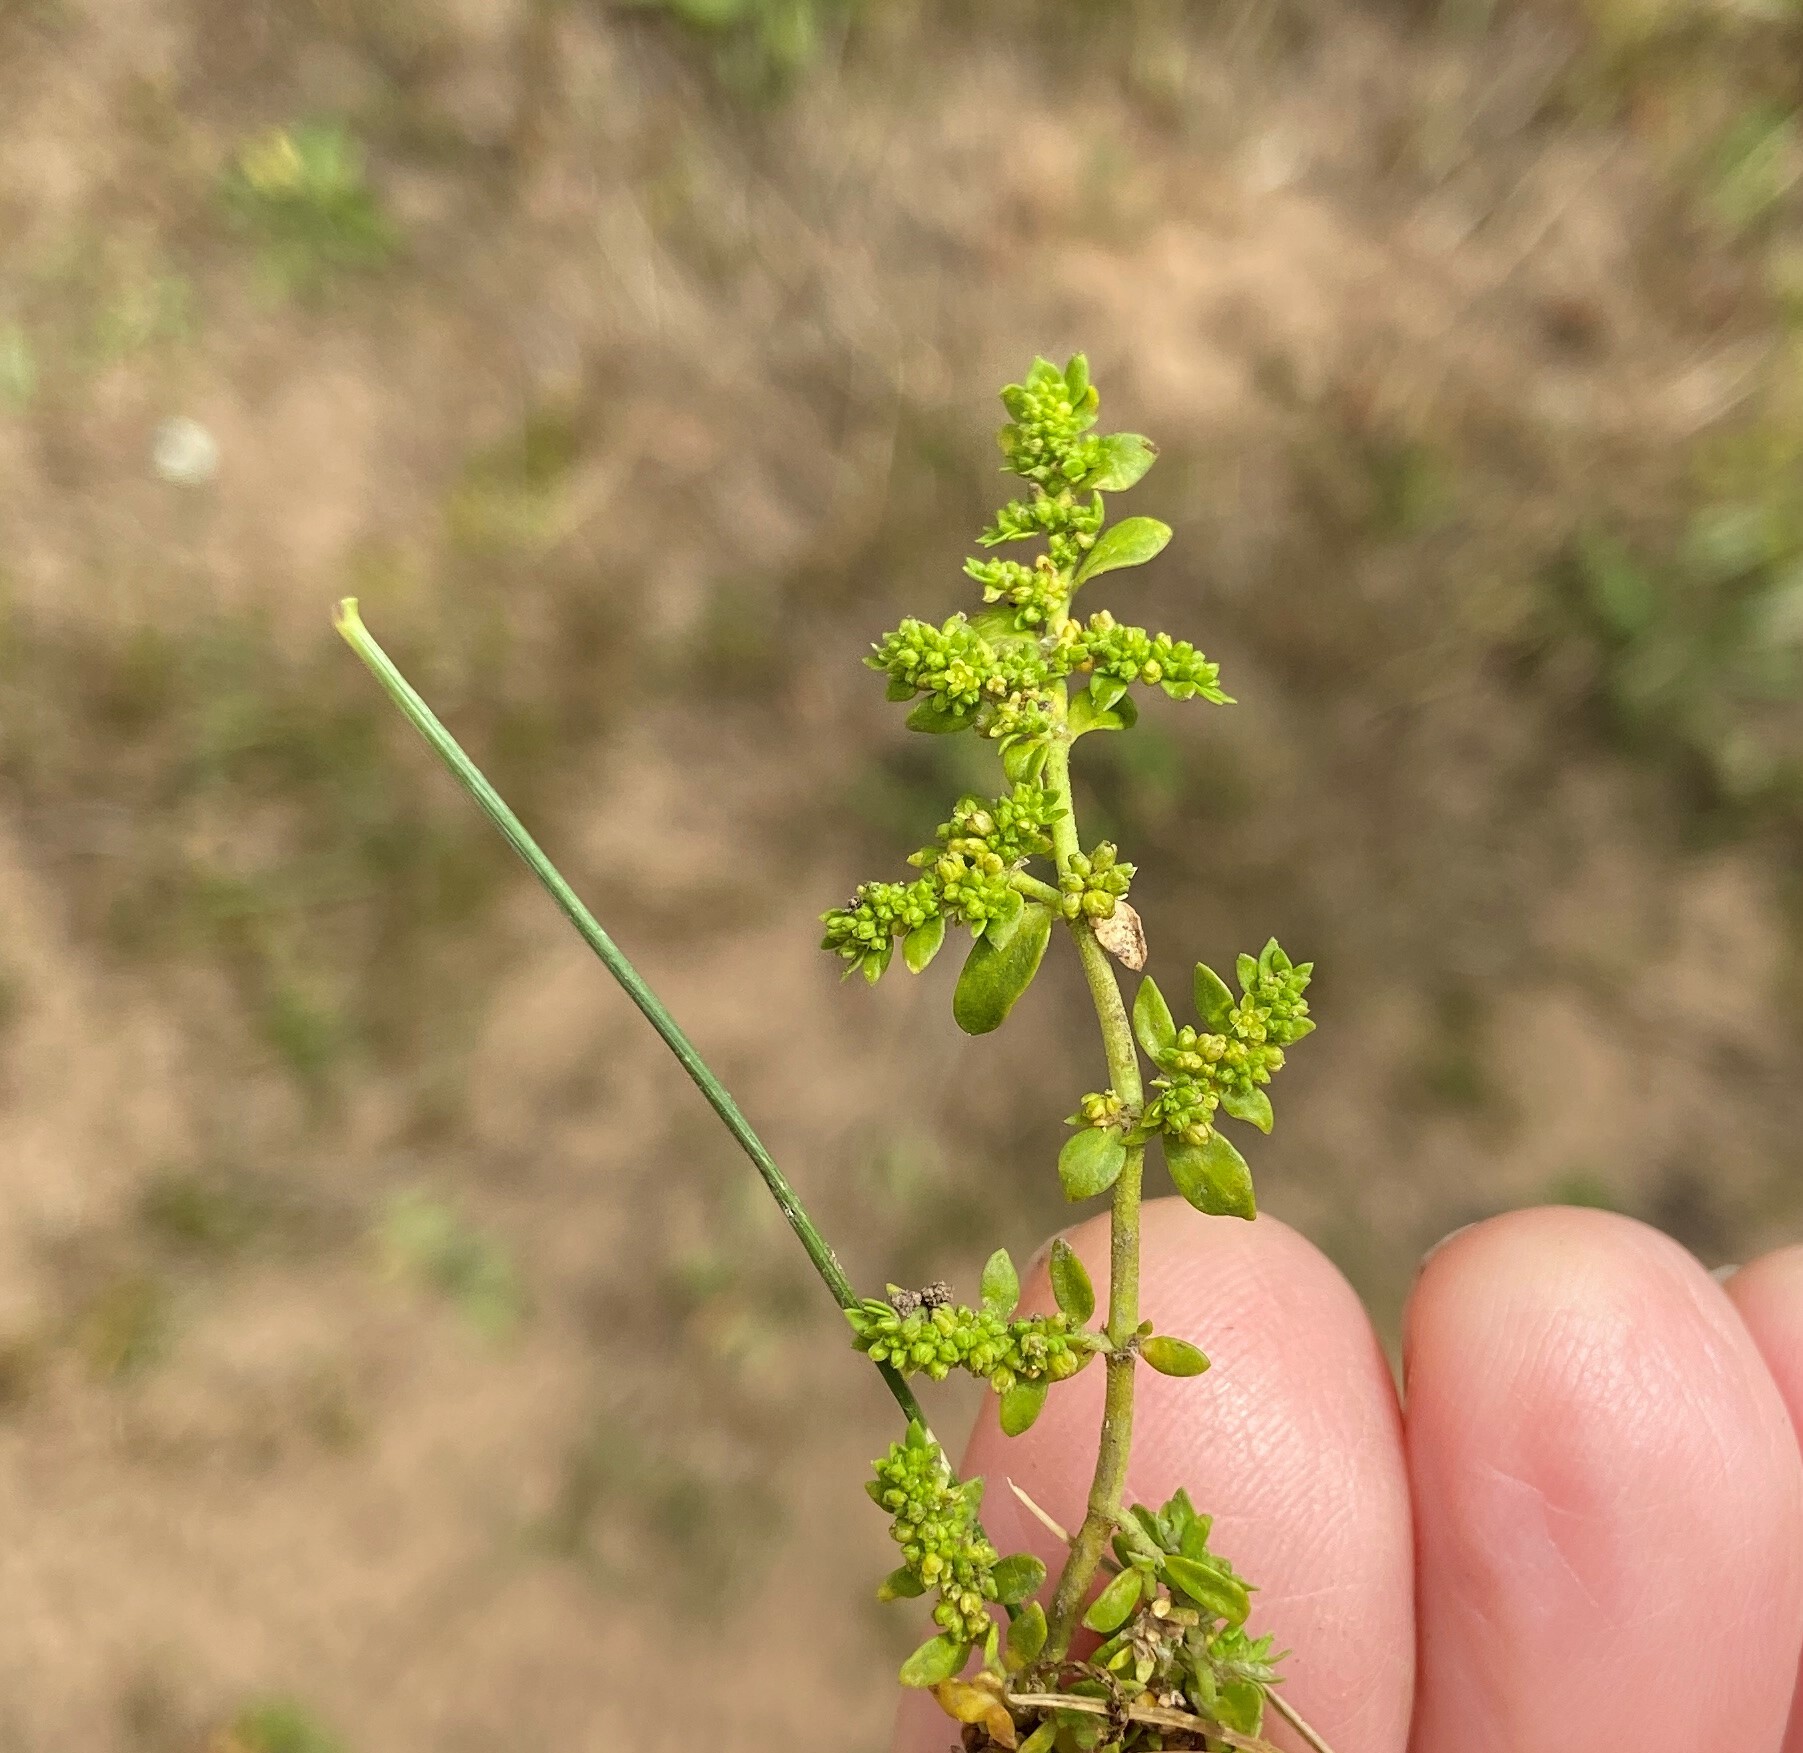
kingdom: Plantae
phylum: Tracheophyta
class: Magnoliopsida
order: Caryophyllales
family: Caryophyllaceae
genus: Herniaria
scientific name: Herniaria glabra
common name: Smooth rupturewort
